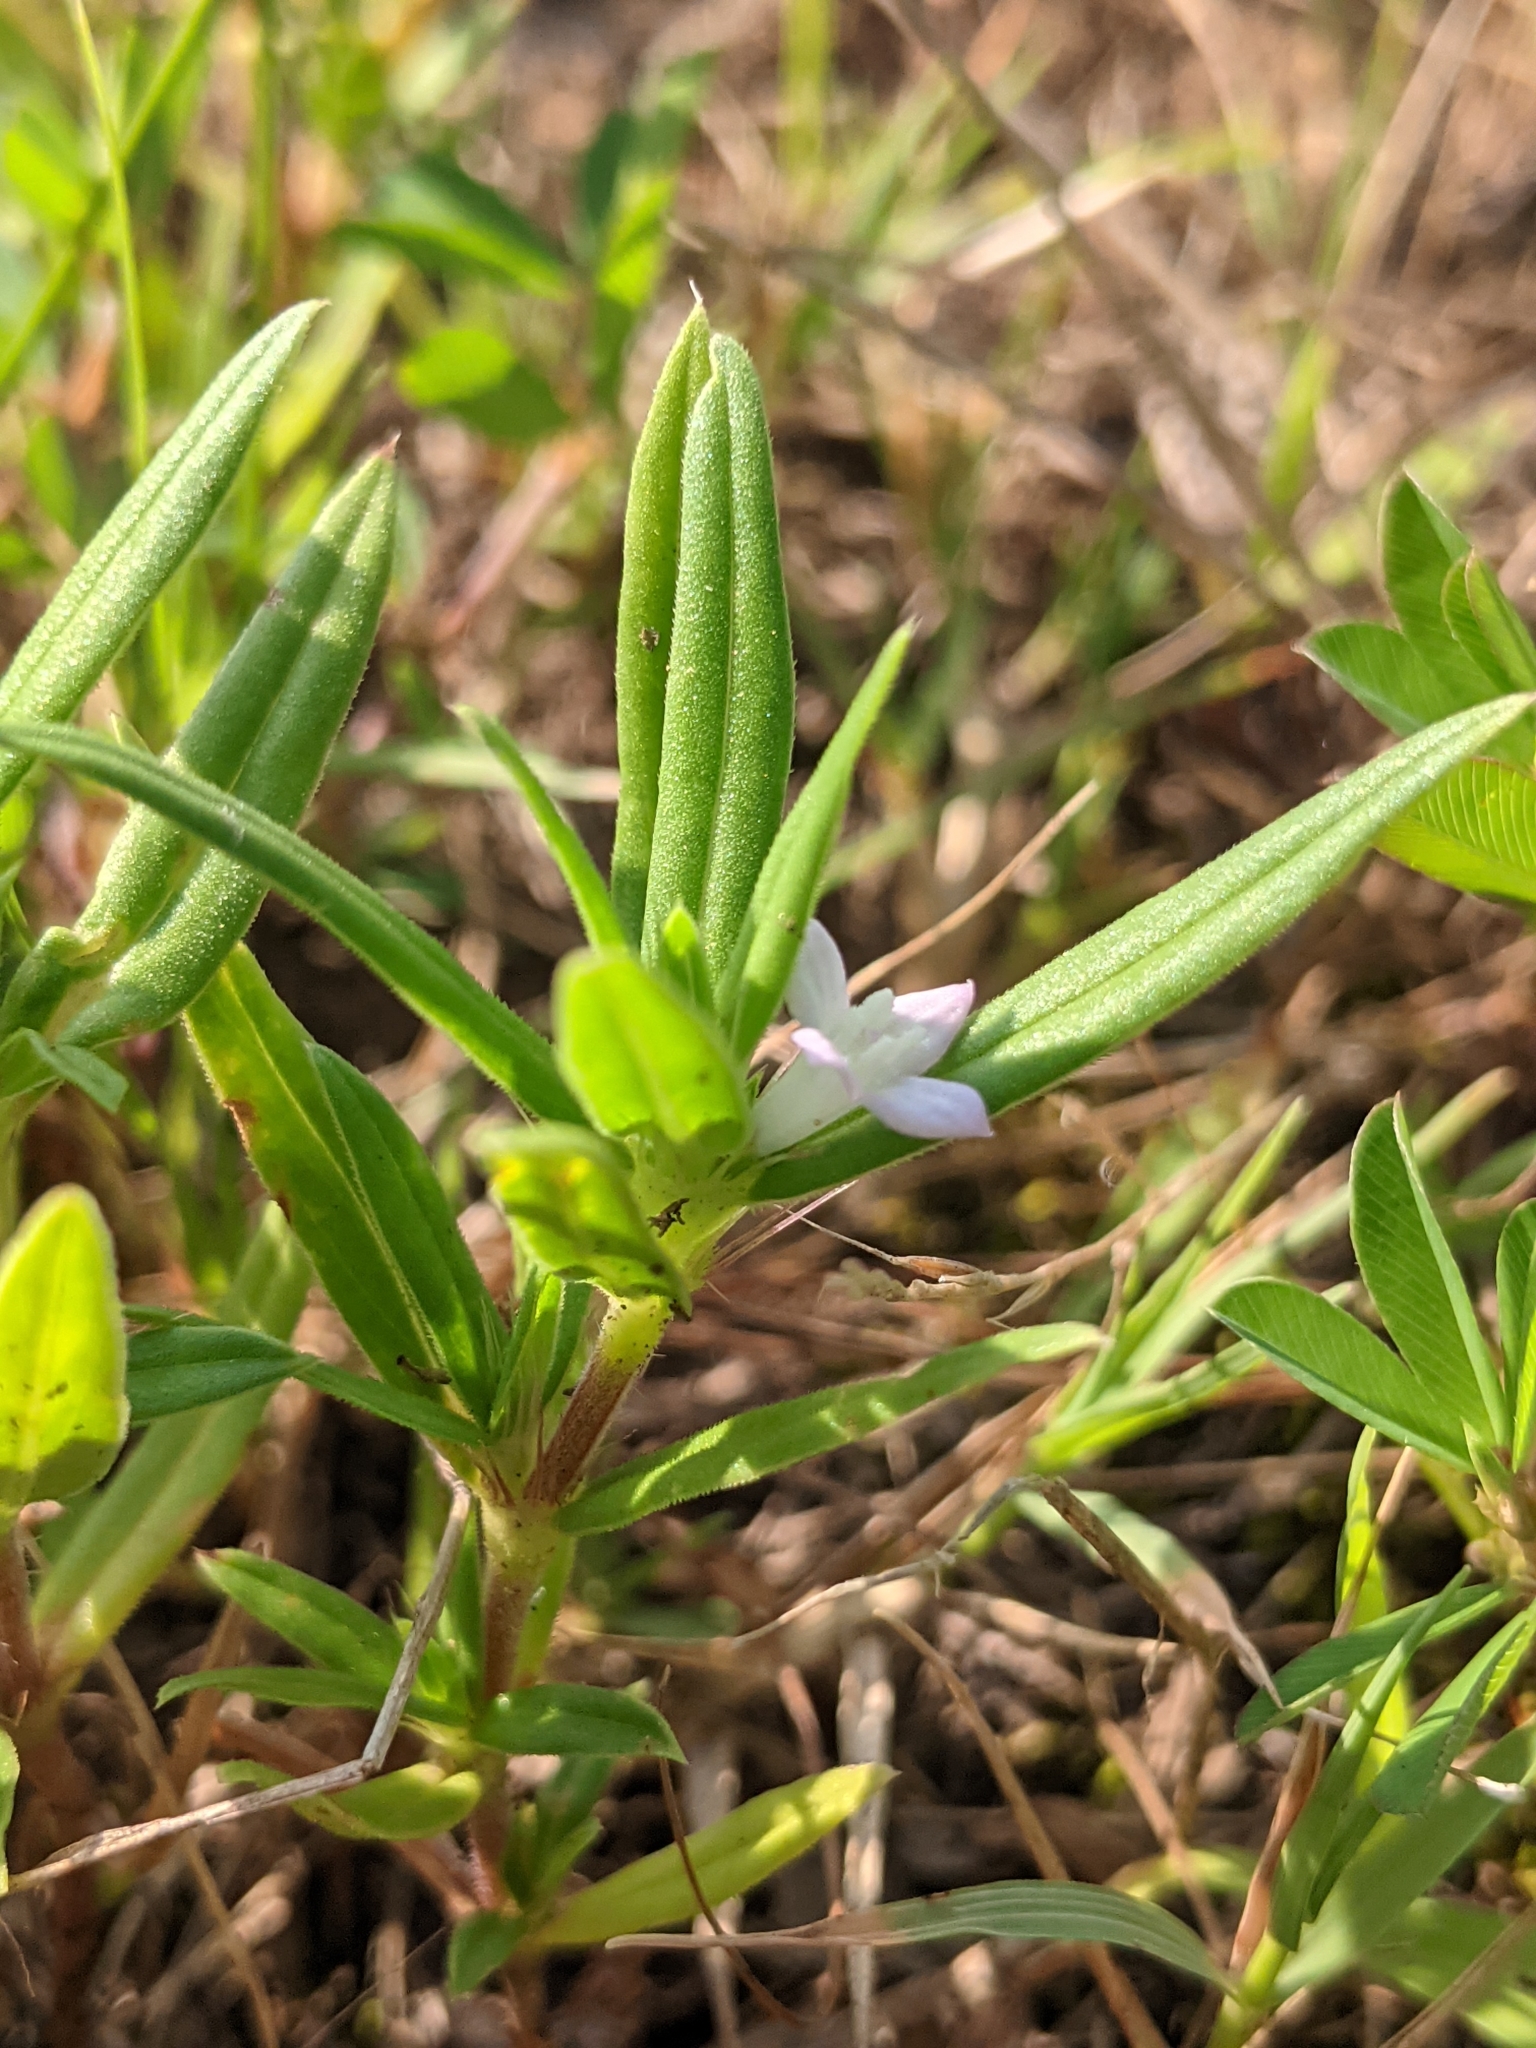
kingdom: Plantae
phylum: Tracheophyta
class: Magnoliopsida
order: Gentianales
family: Rubiaceae
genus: Hexasepalum
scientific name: Hexasepalum teres
